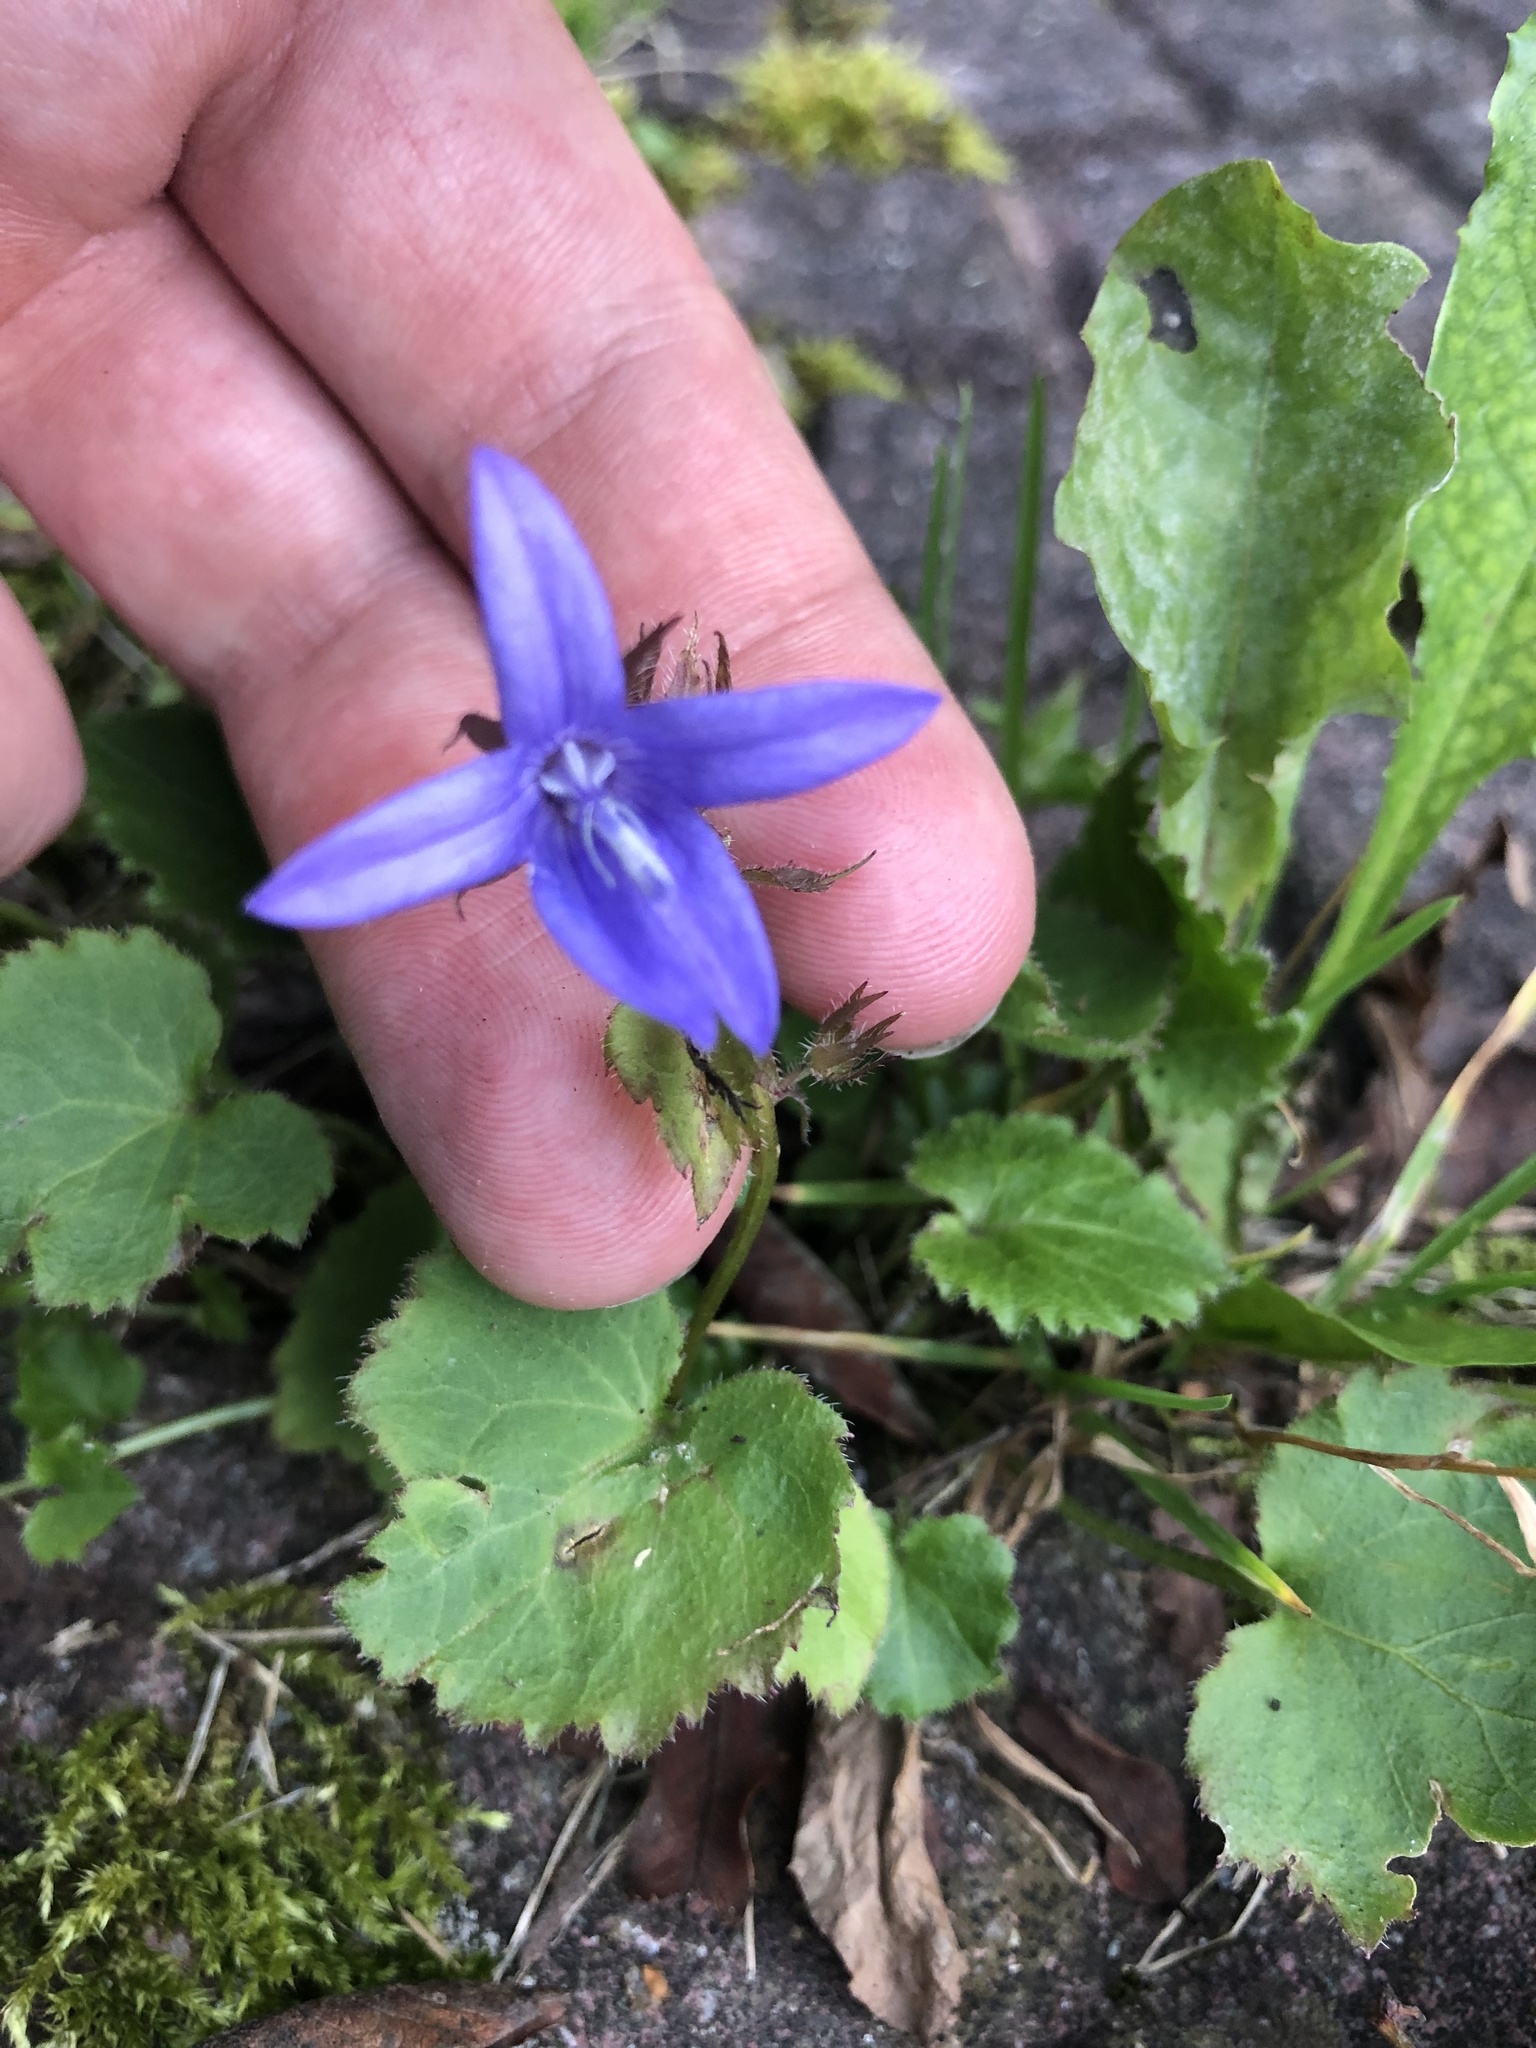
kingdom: Plantae
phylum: Tracheophyta
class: Magnoliopsida
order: Asterales
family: Campanulaceae
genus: Campanula
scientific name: Campanula poscharskyana
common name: Trailing bellflower
